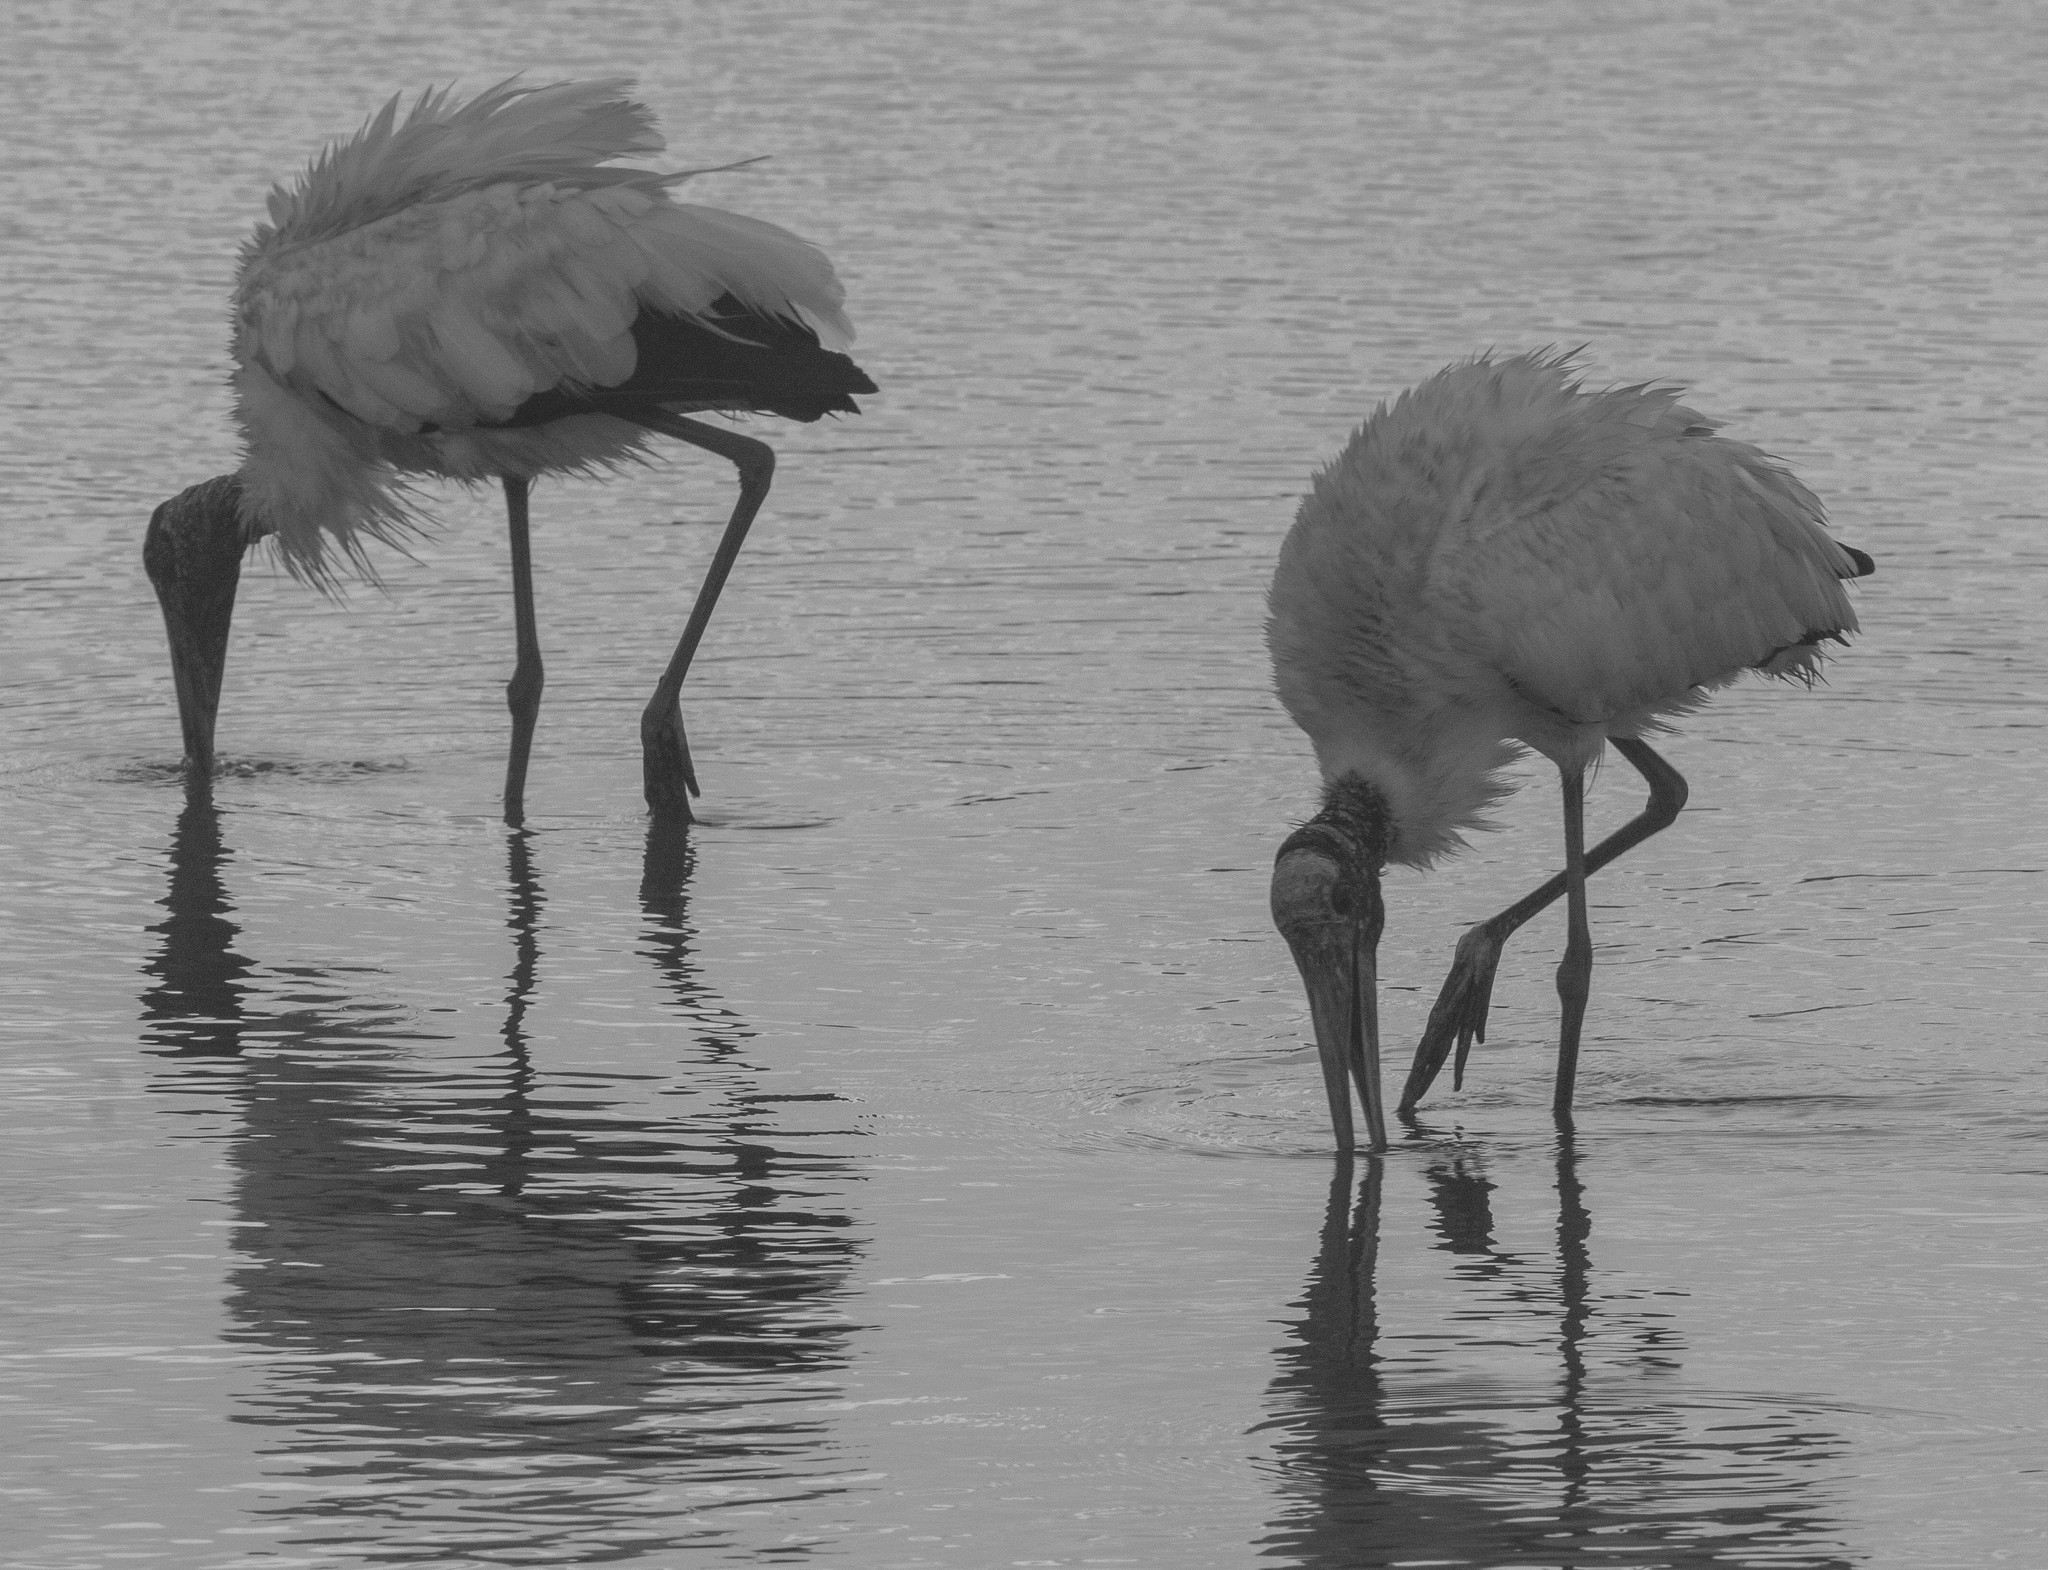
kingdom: Animalia
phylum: Chordata
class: Aves
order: Ciconiiformes
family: Ciconiidae
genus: Mycteria
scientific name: Mycteria americana
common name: Wood stork
